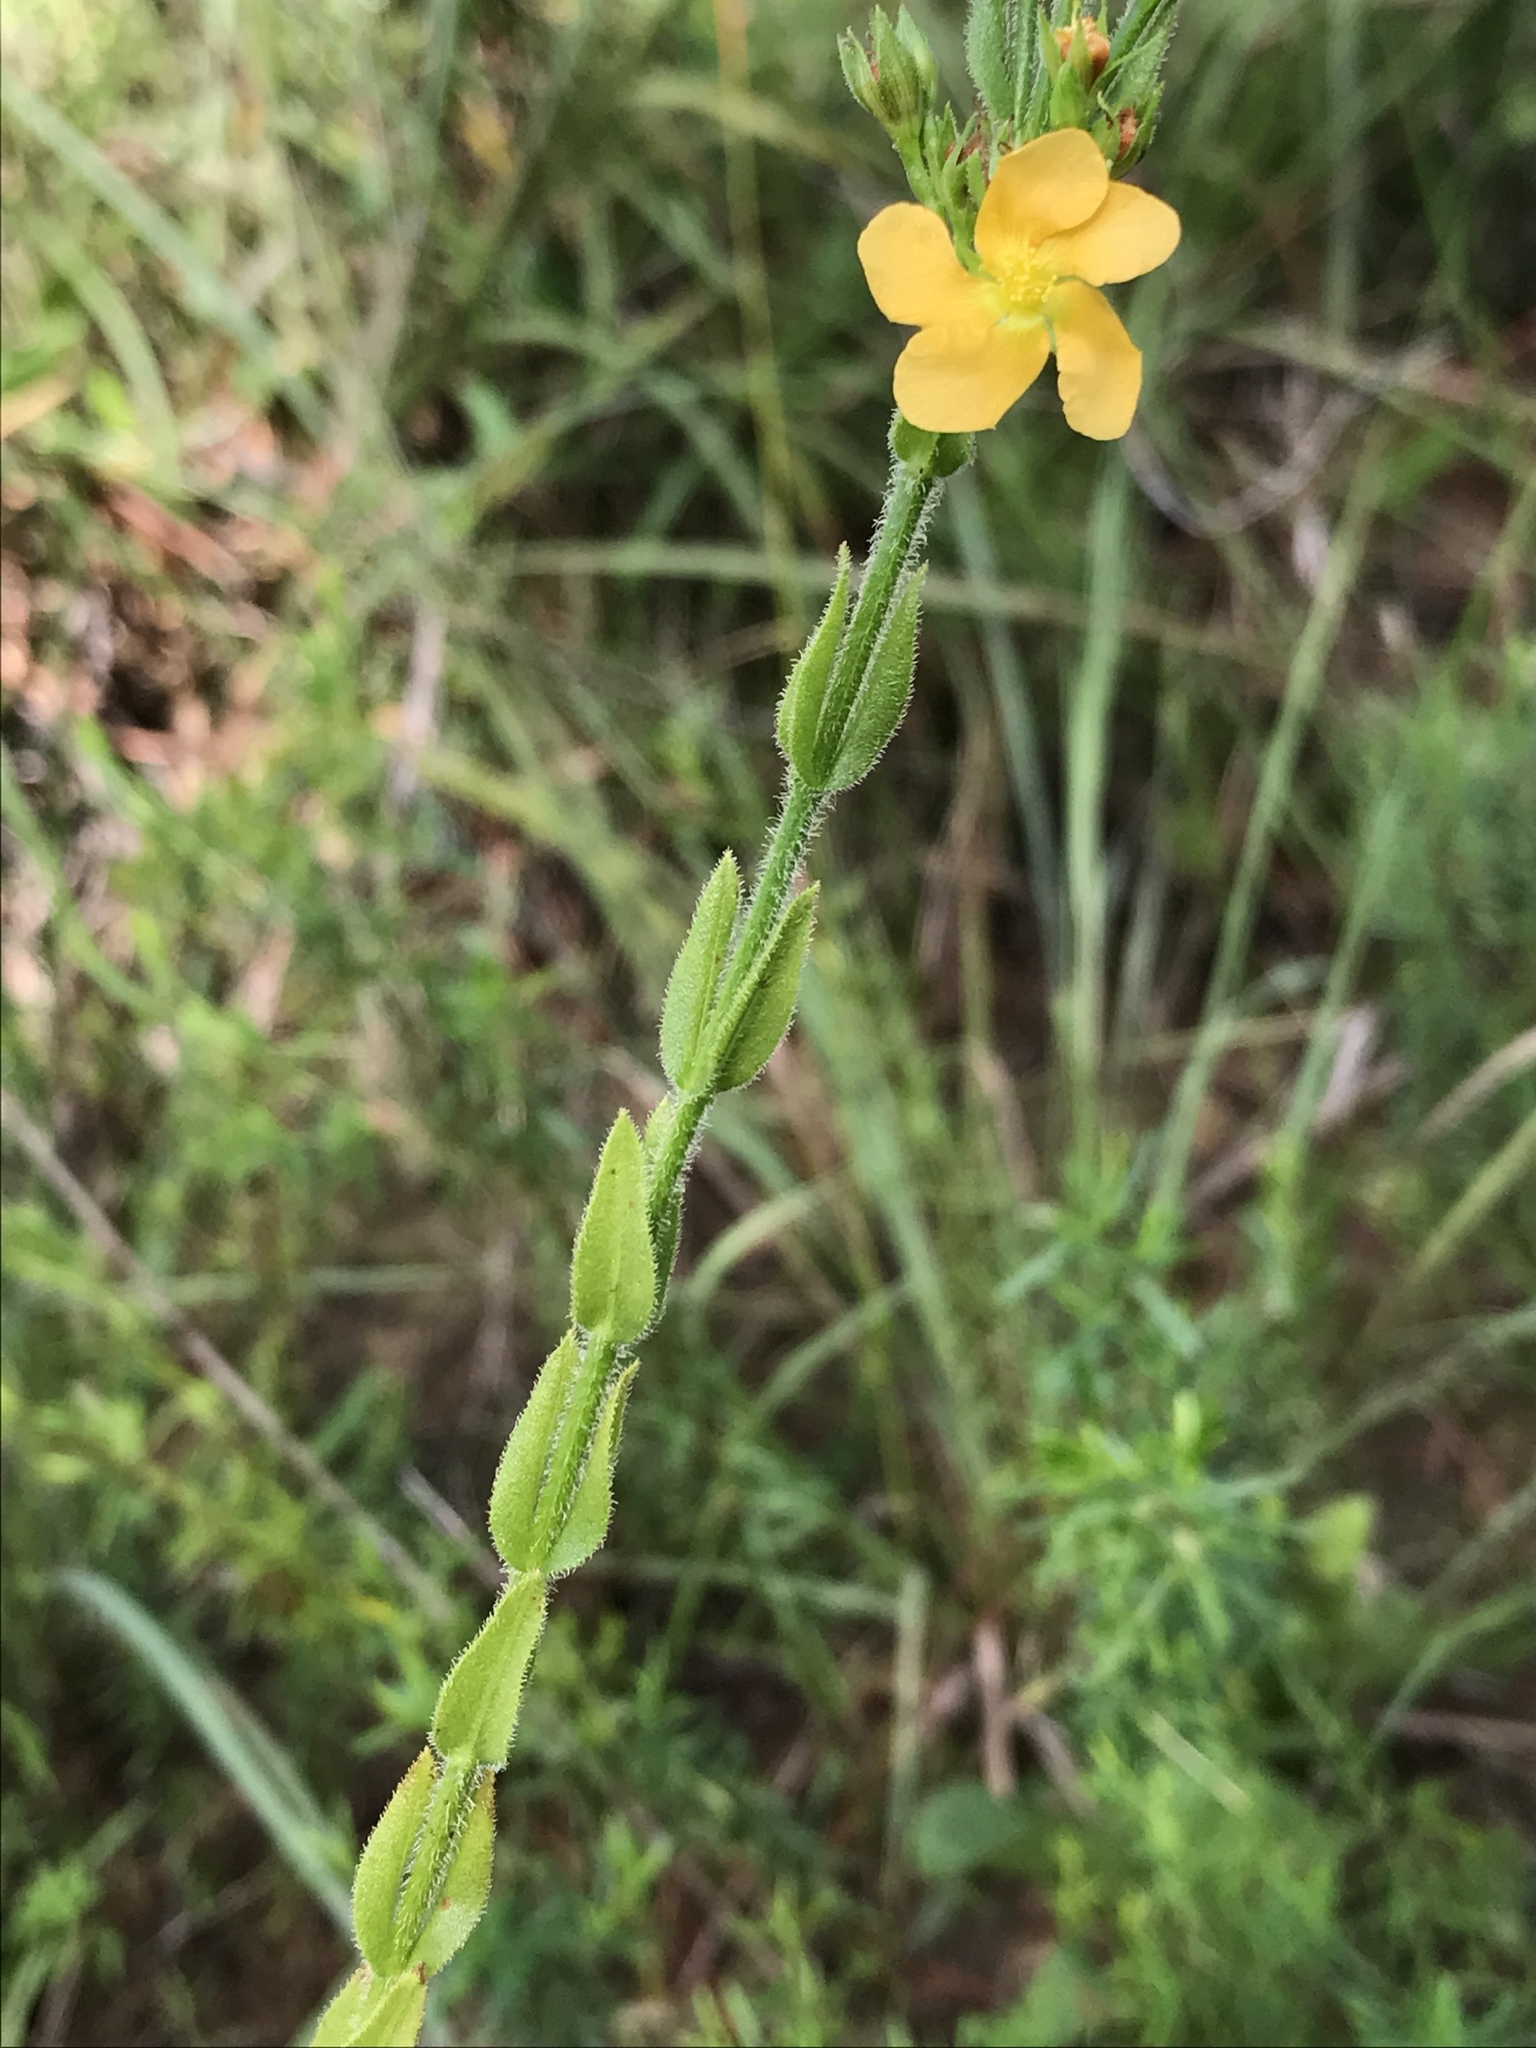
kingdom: Plantae
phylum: Tracheophyta
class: Magnoliopsida
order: Malpighiales
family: Hypericaceae
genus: Hypericum
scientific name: Hypericum setosum
